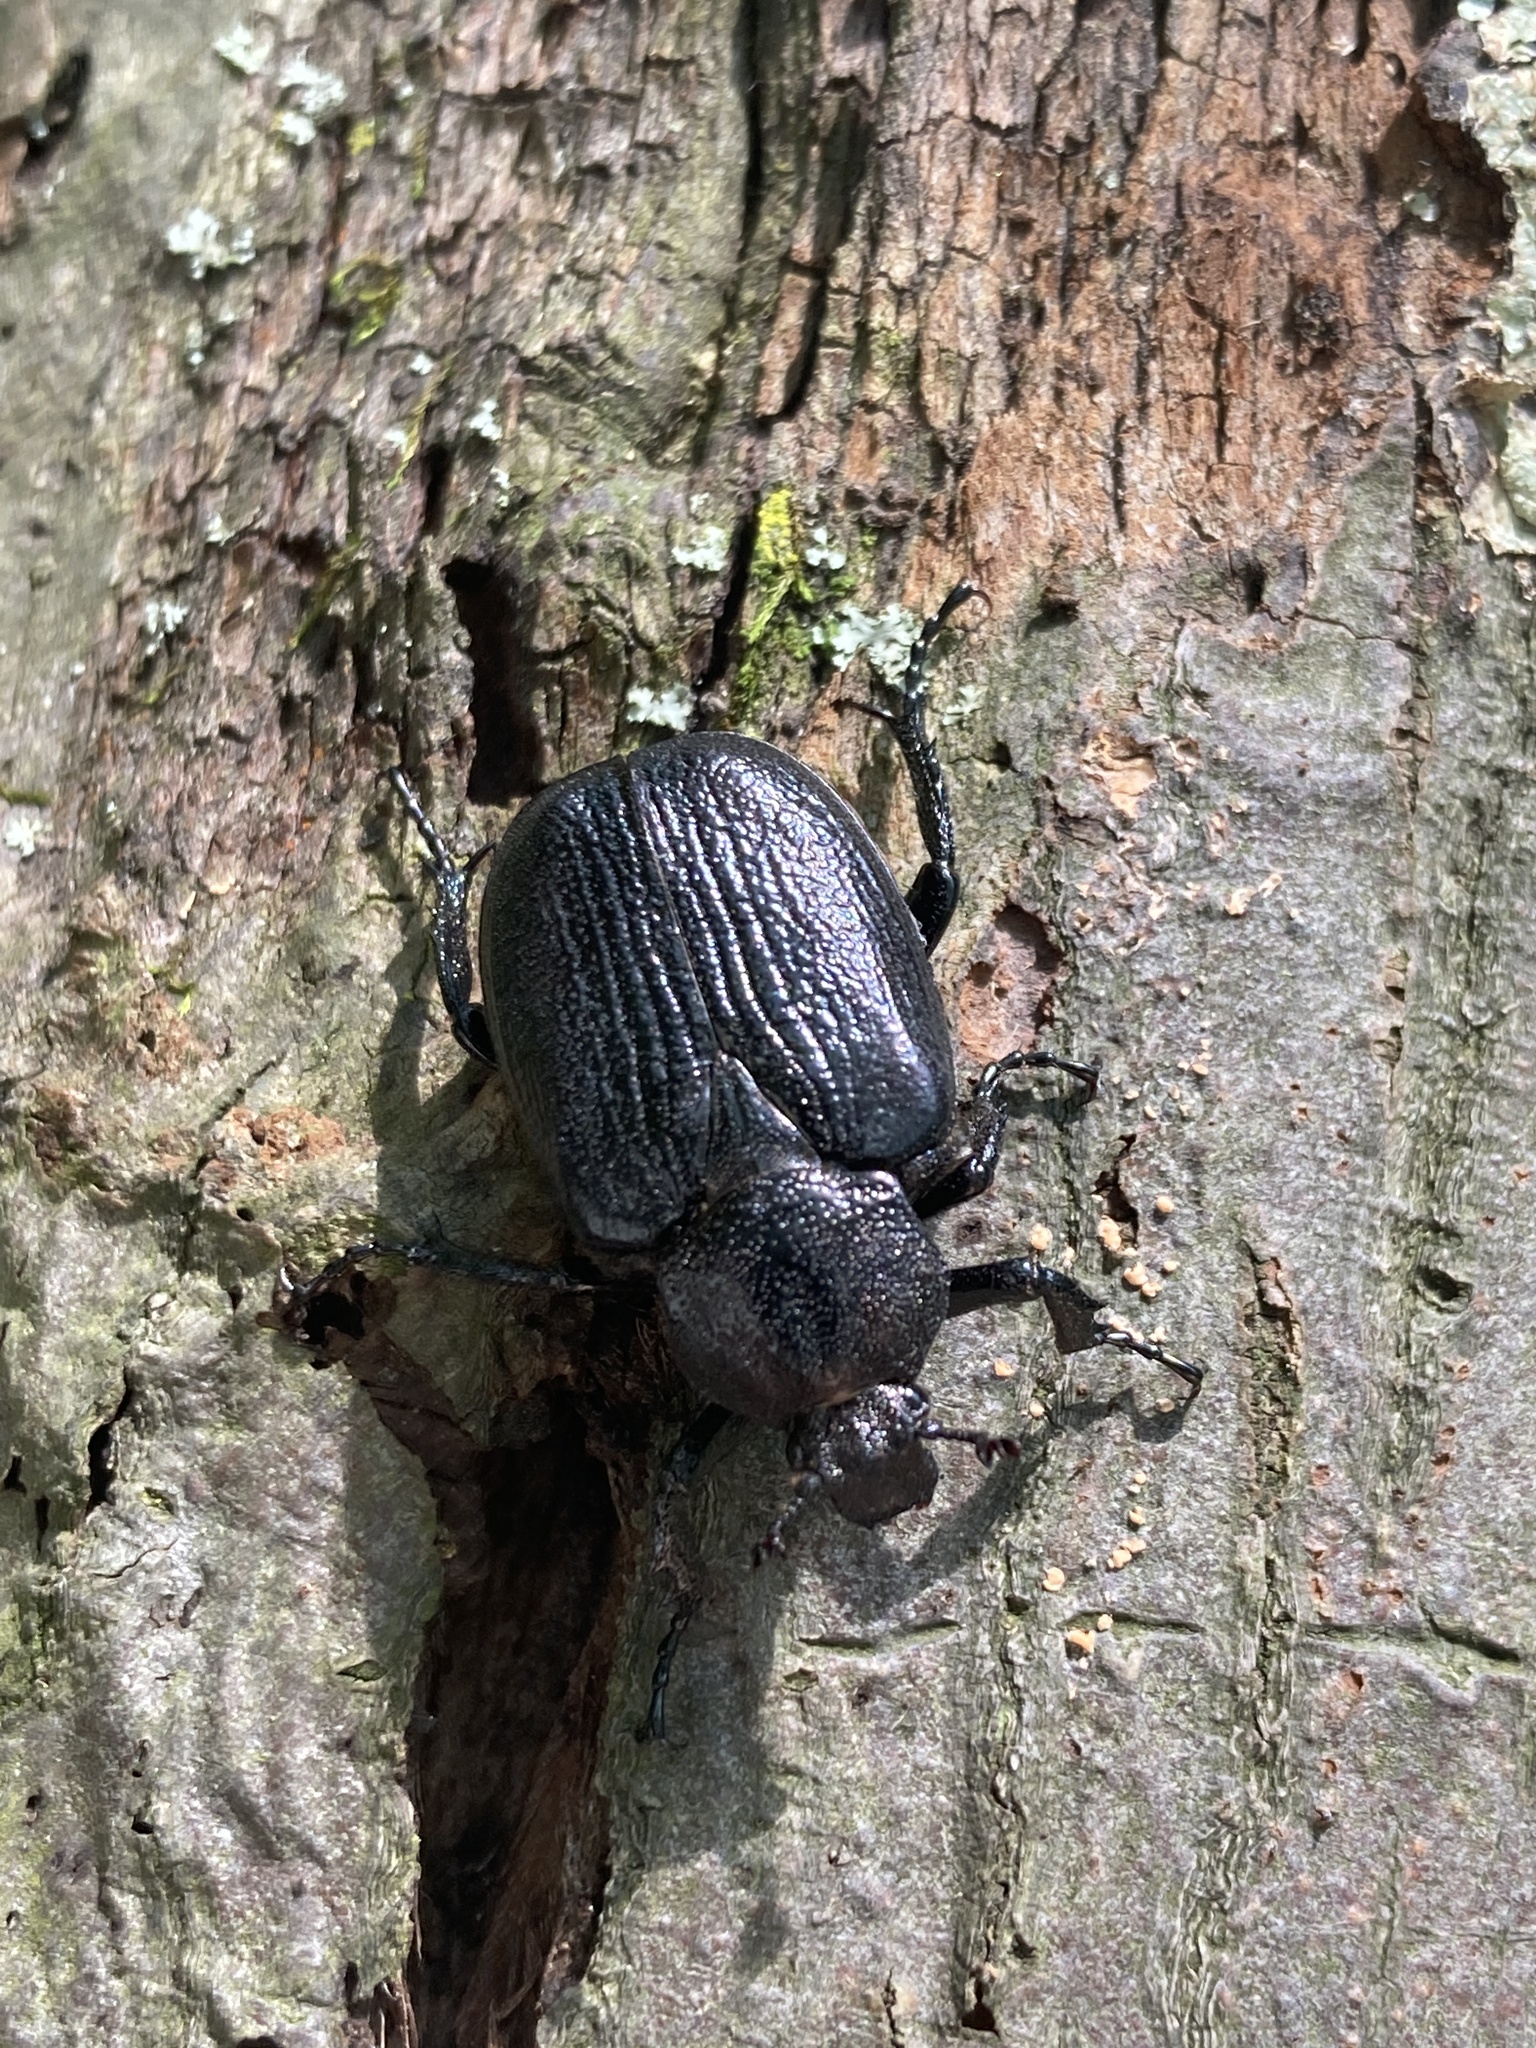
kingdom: Animalia
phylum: Arthropoda
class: Insecta
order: Coleoptera
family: Scarabaeidae
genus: Osmoderma
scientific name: Osmoderma scabra
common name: Rough hermit beetle
